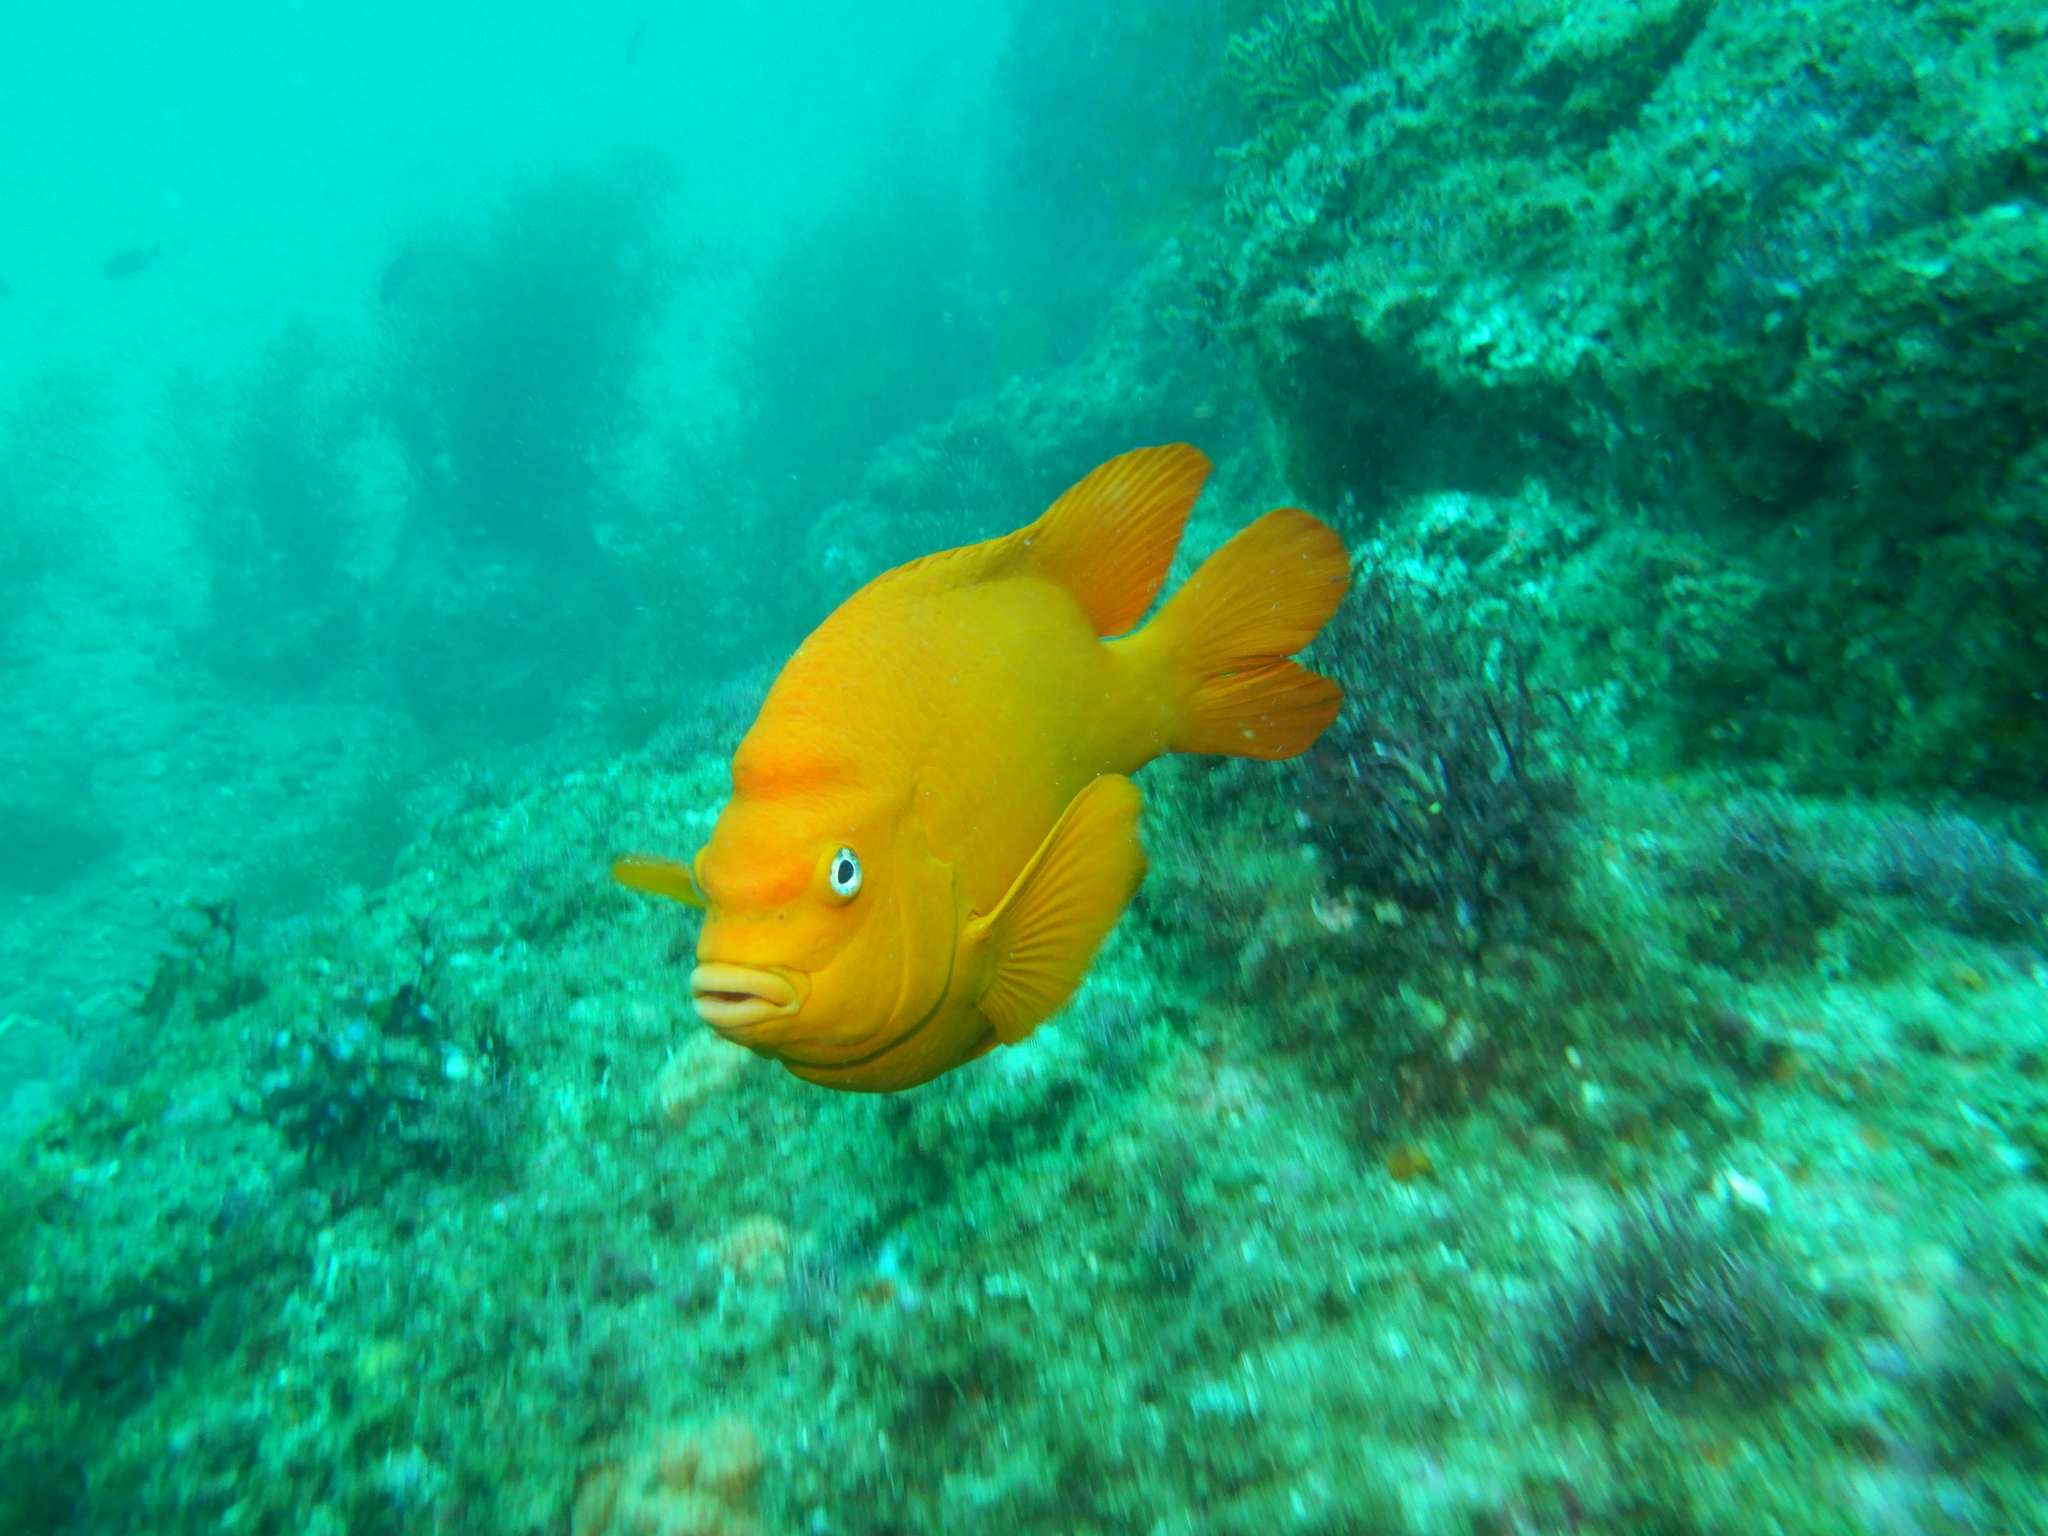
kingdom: Animalia
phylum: Chordata
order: Perciformes
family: Pomacentridae
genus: Hypsypops
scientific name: Hypsypops rubicundus
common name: Garibaldi
